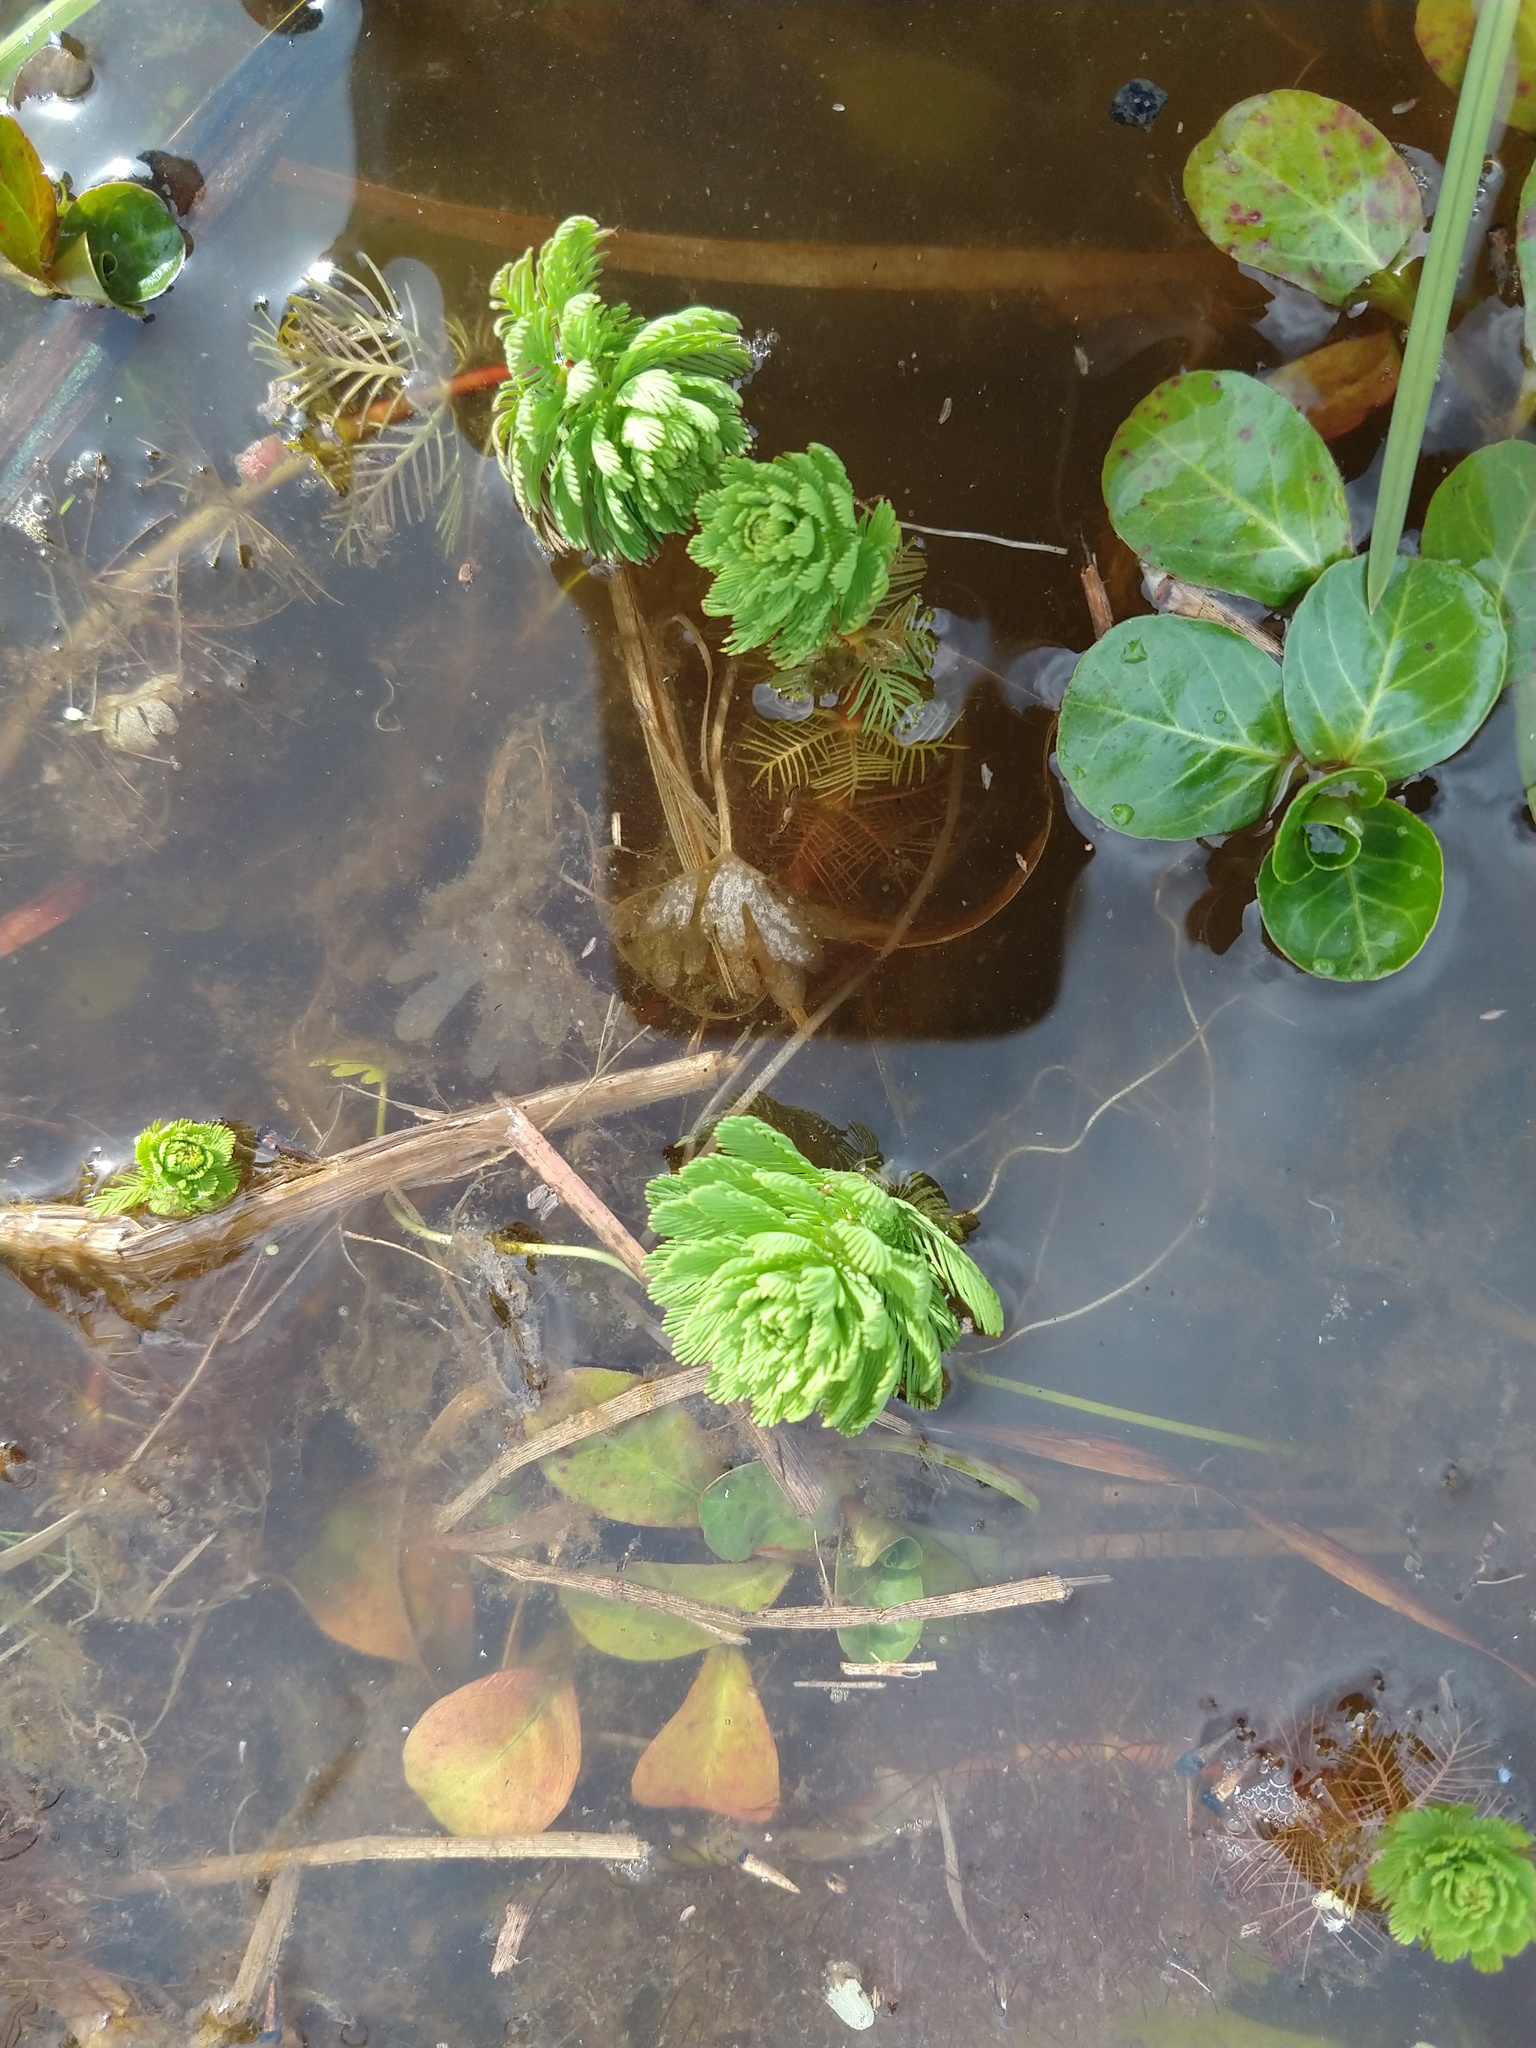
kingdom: Plantae
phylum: Tracheophyta
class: Magnoliopsida
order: Saxifragales
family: Haloragaceae
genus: Myriophyllum
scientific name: Myriophyllum aquaticum
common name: Parrot's feather
